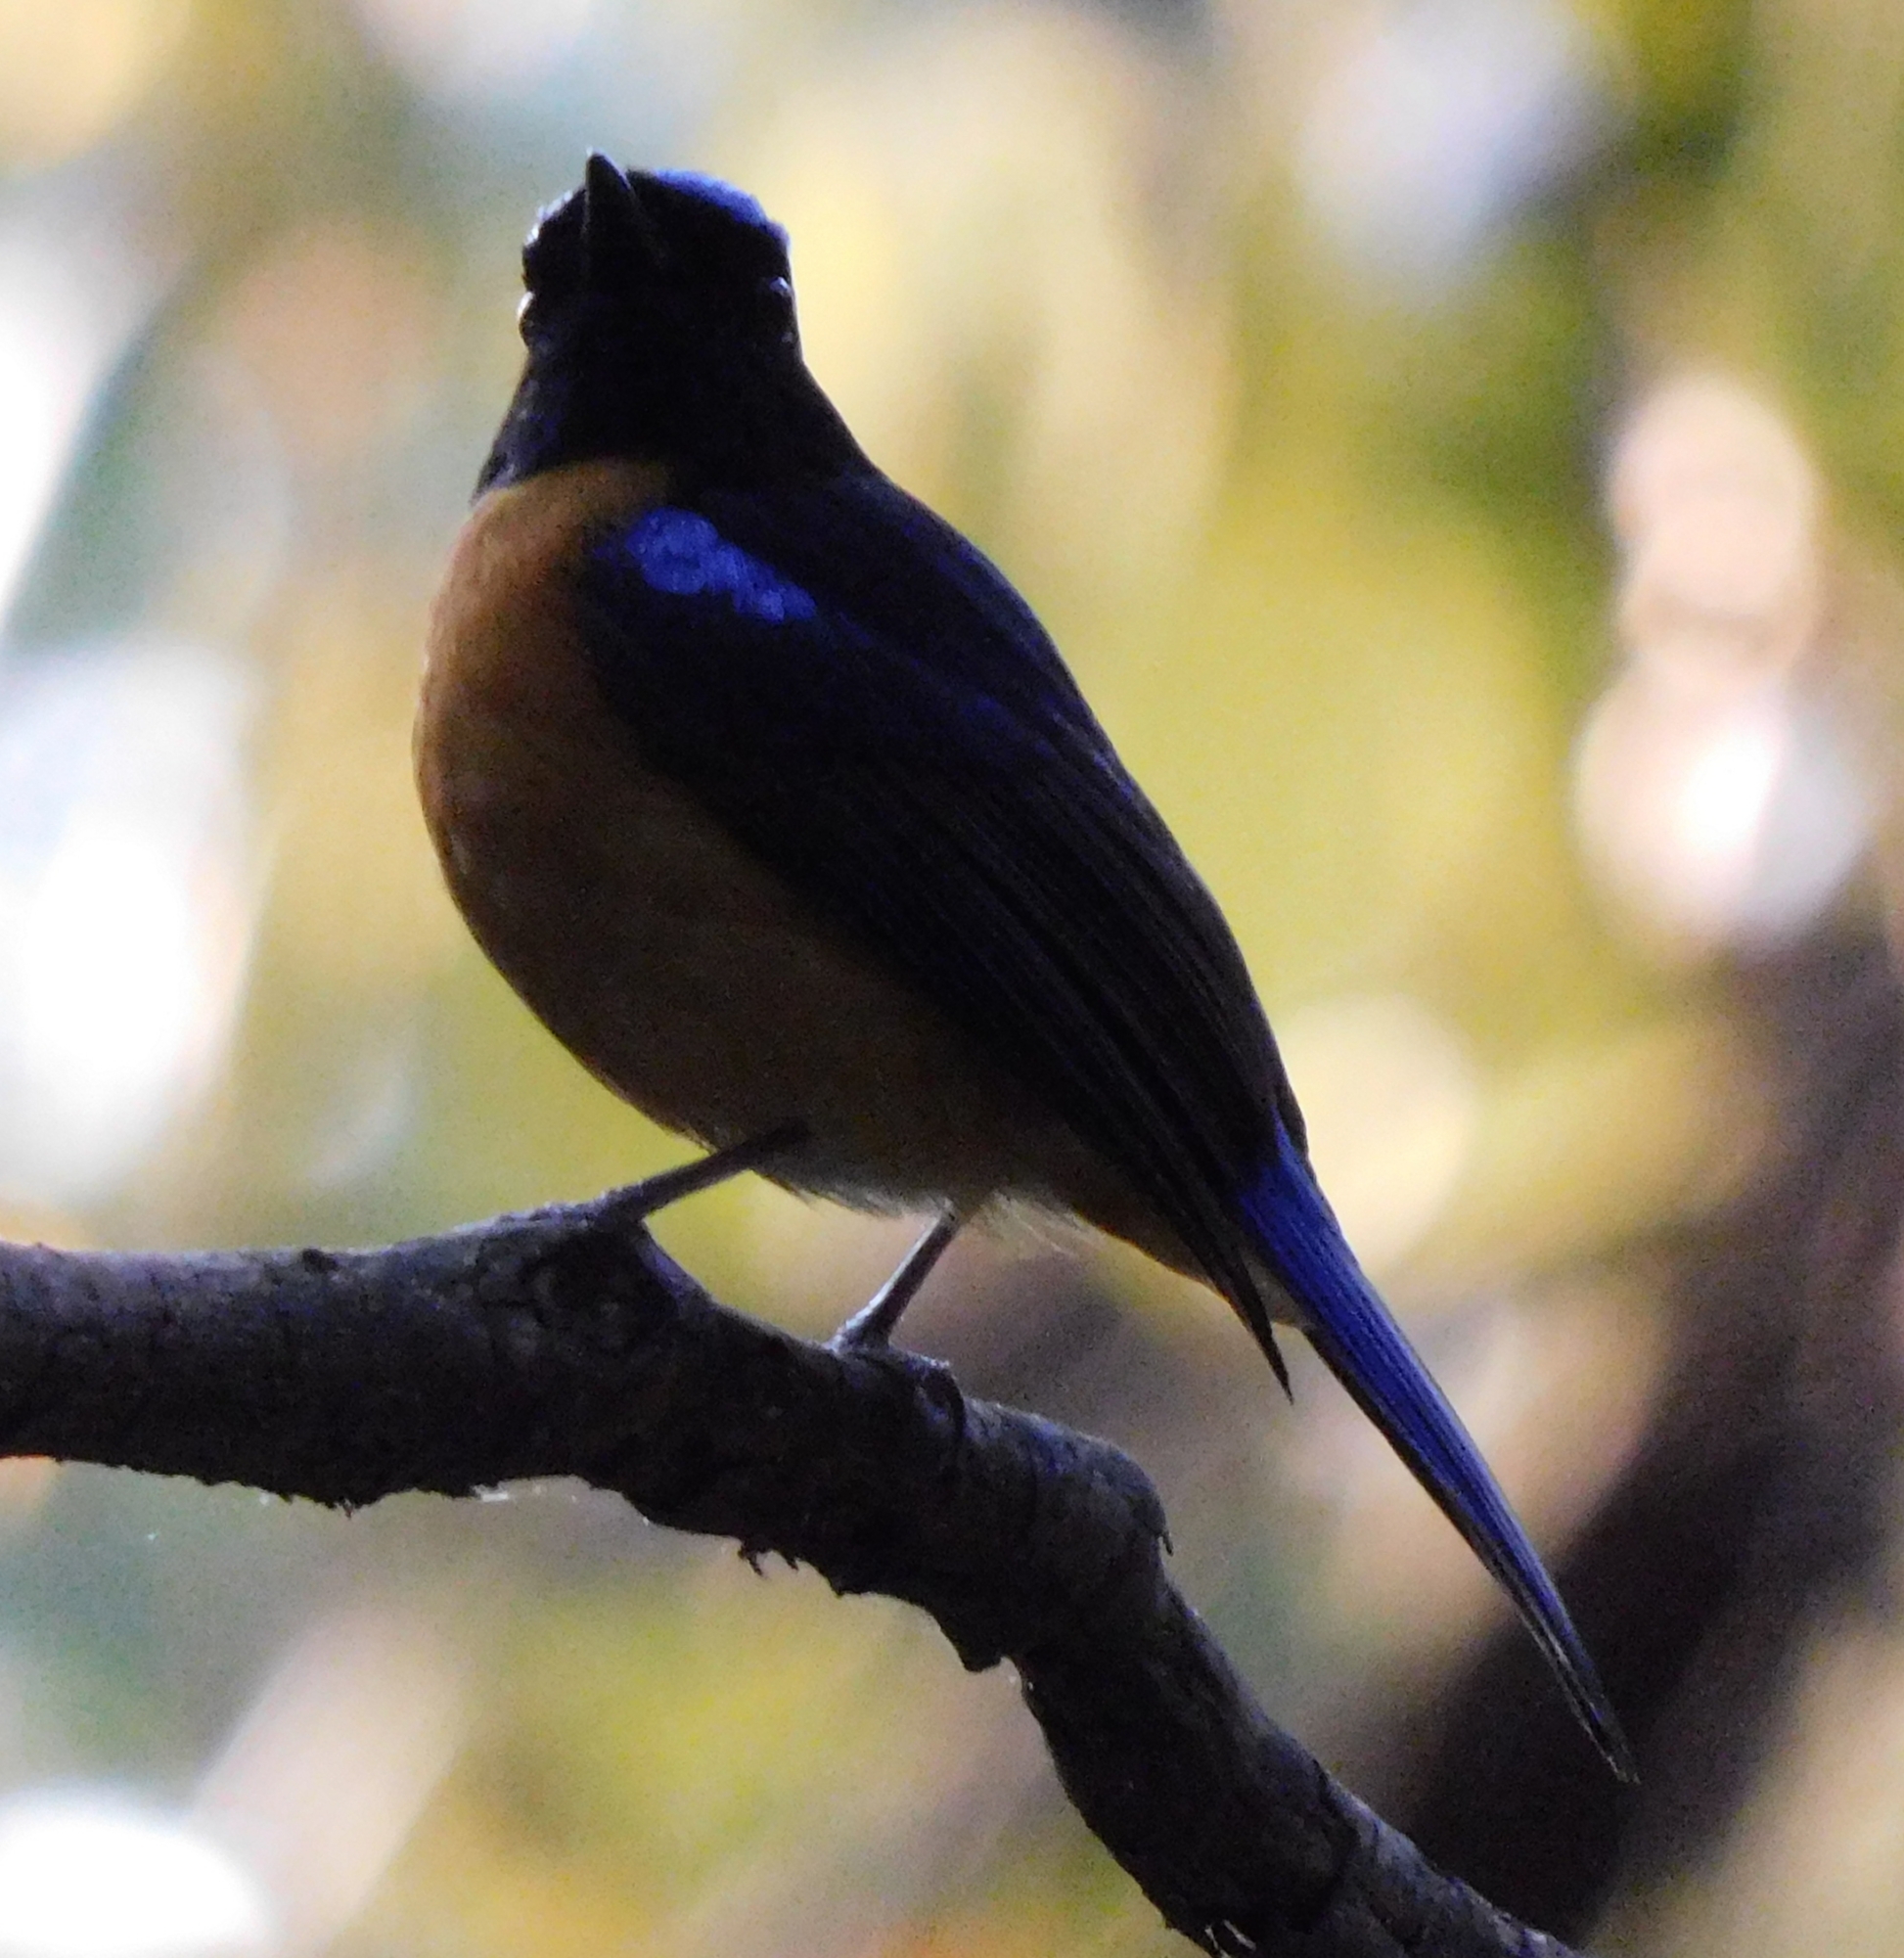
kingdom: Animalia
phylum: Chordata
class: Aves
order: Passeriformes
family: Muscicapidae
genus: Niltava
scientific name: Niltava sundara
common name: Rufous-bellied niltava
